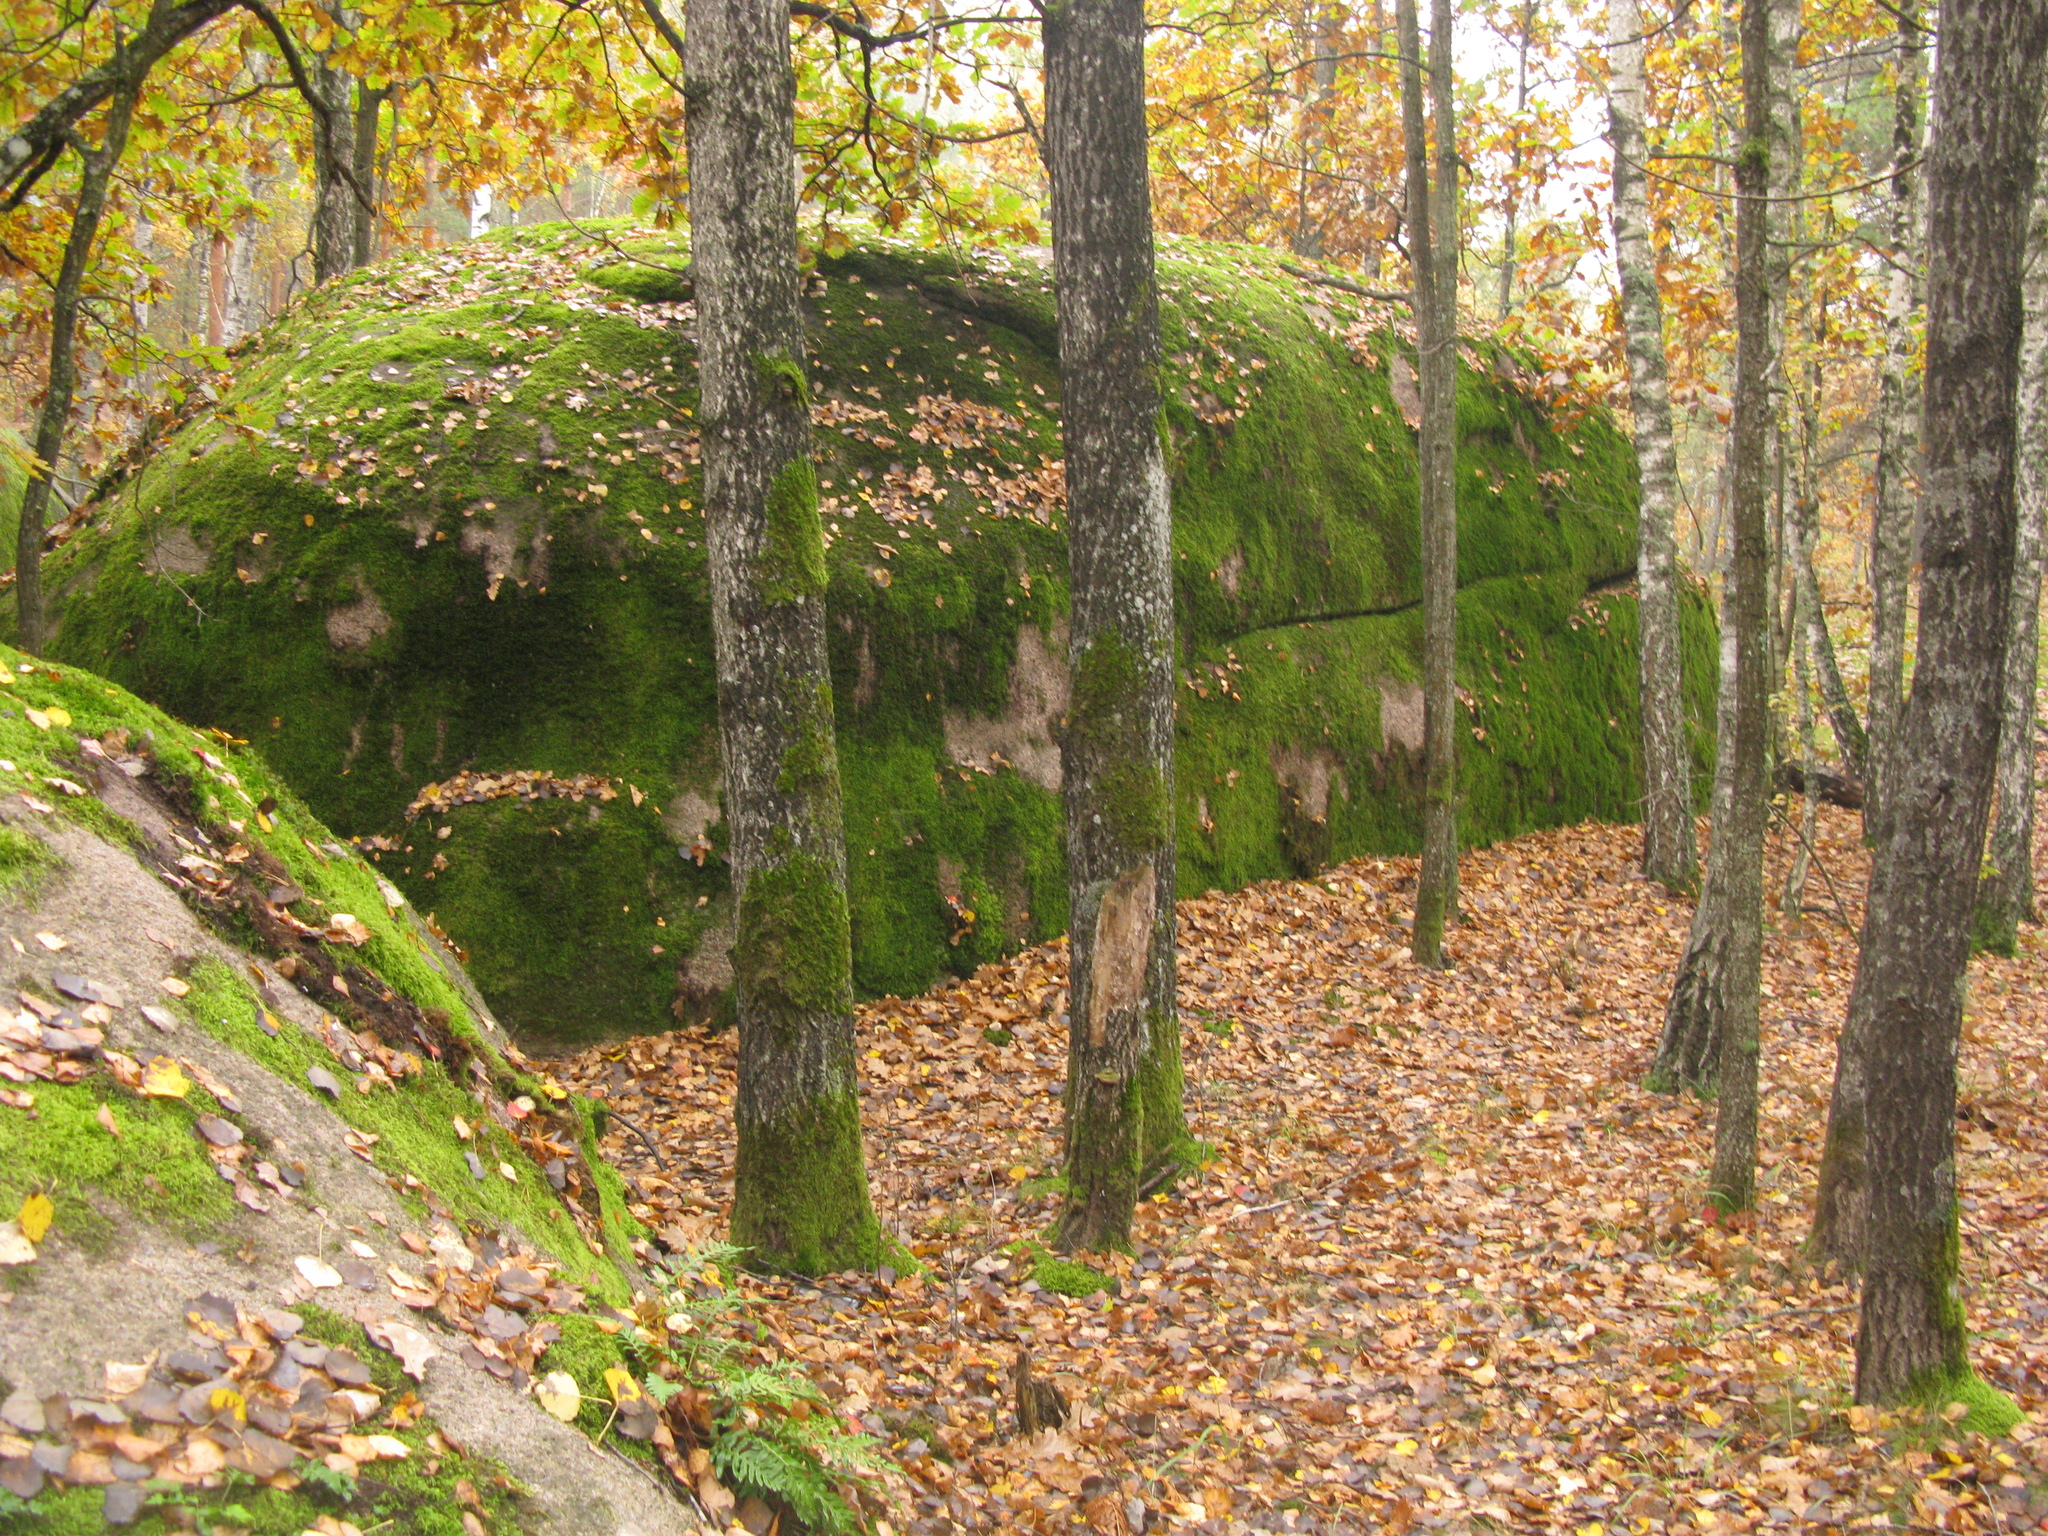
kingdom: Plantae
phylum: Tracheophyta
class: Magnoliopsida
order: Fagales
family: Fagaceae
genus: Quercus
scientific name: Quercus robur
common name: Pedunculate oak
